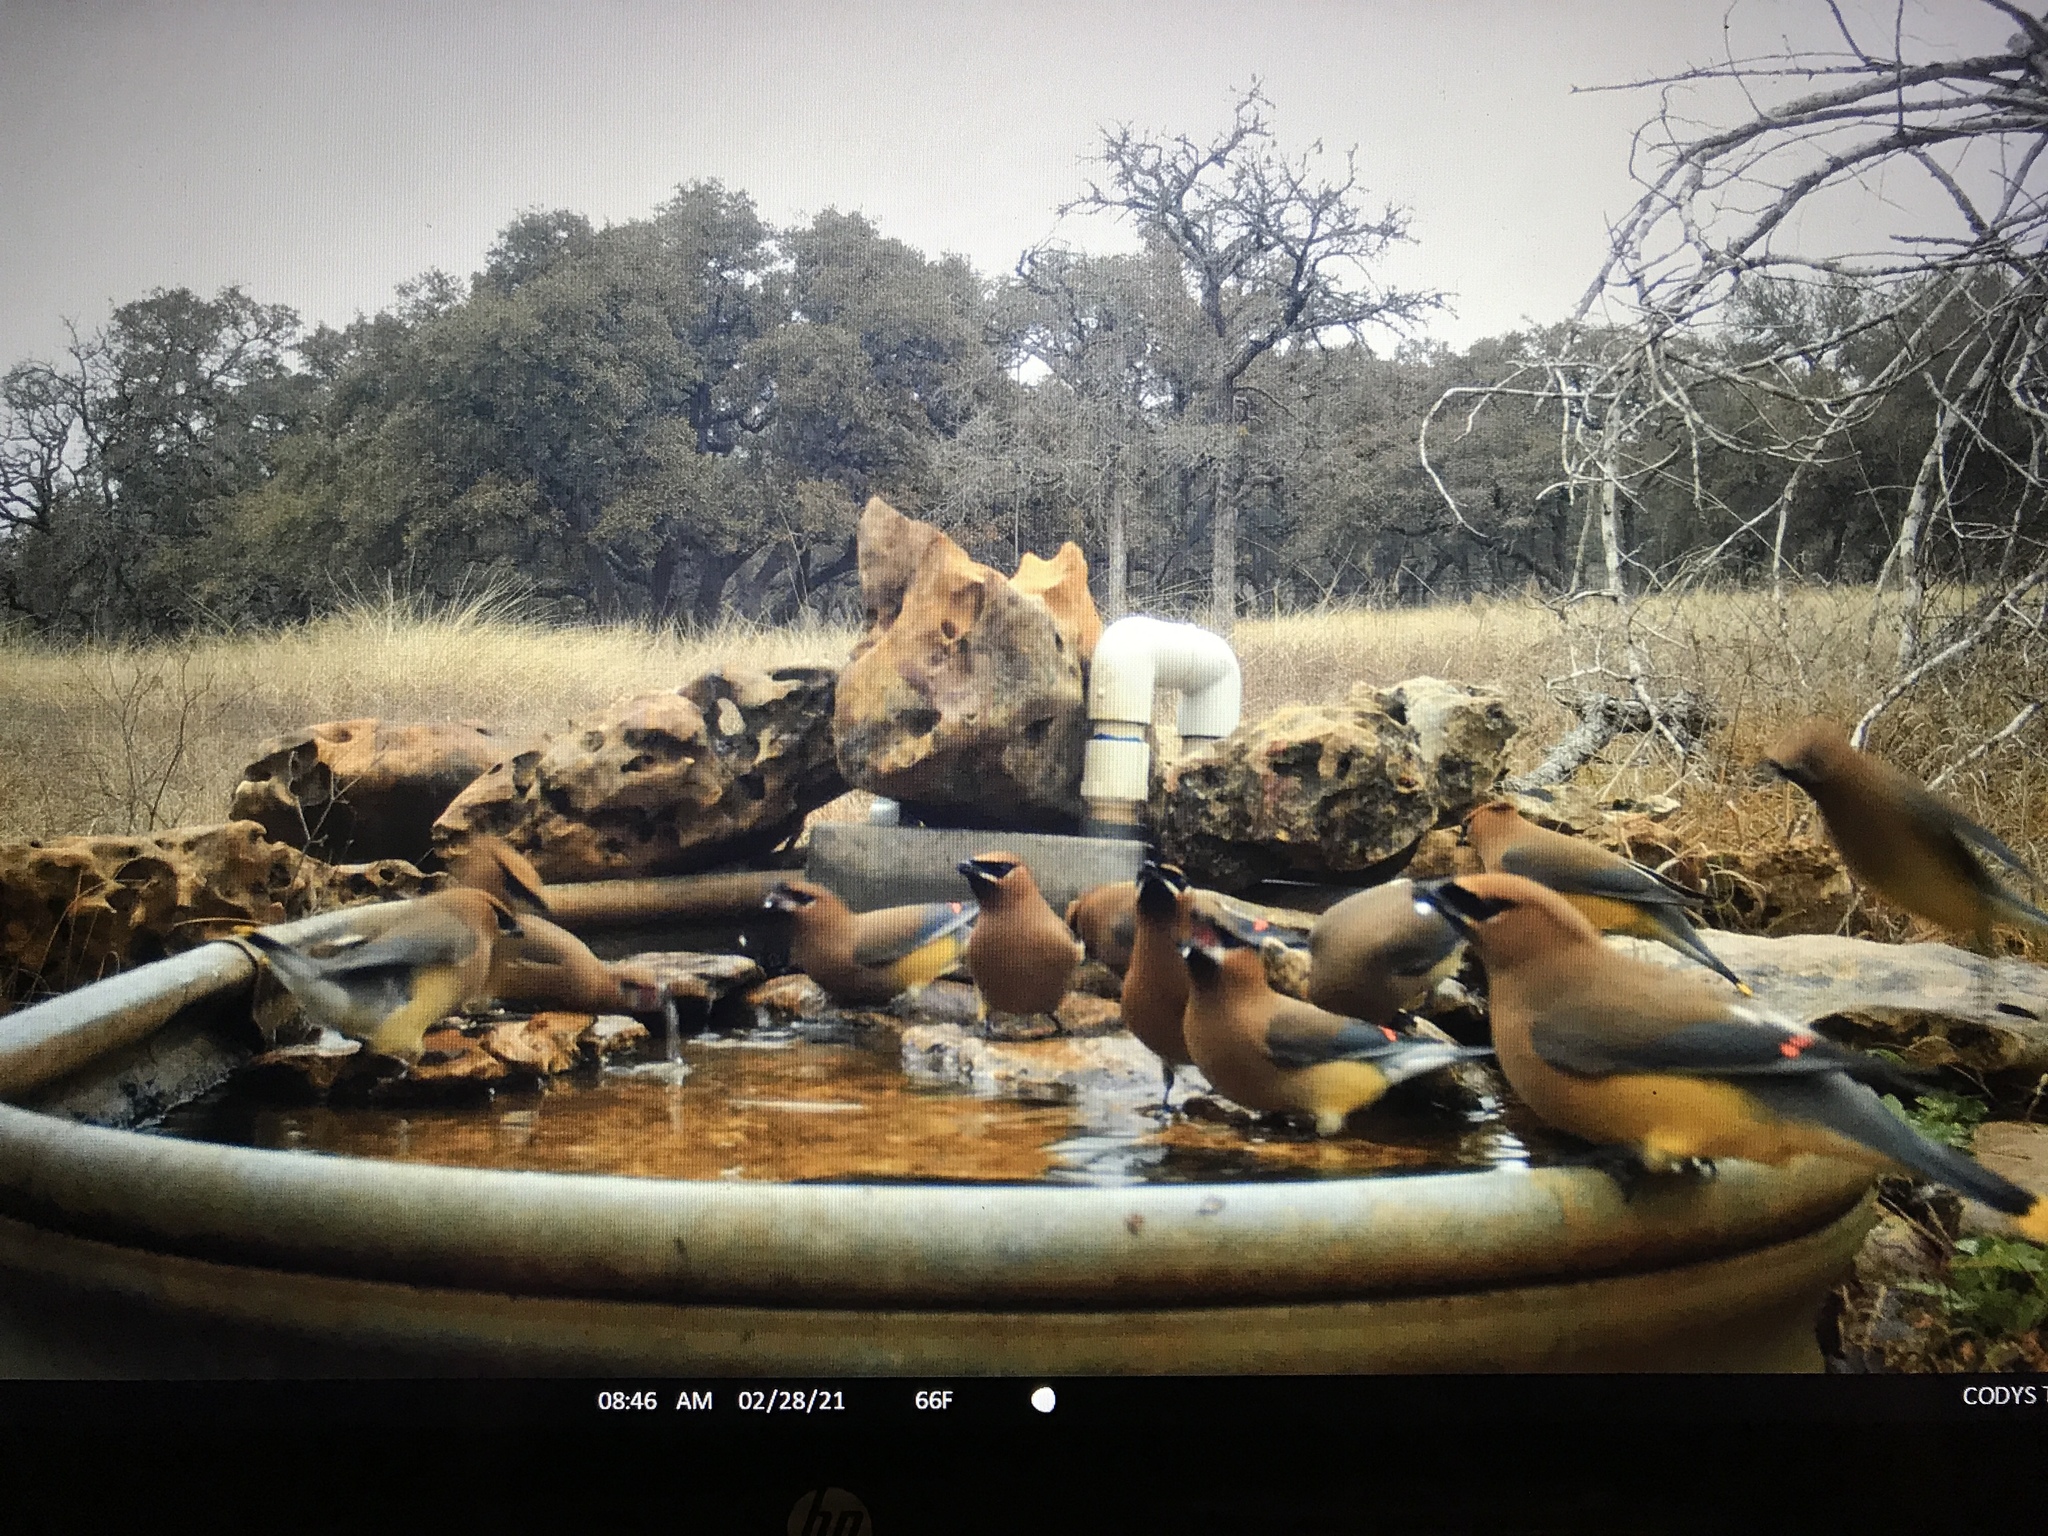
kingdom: Animalia
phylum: Chordata
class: Aves
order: Passeriformes
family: Bombycillidae
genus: Bombycilla
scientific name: Bombycilla cedrorum
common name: Cedar waxwing
